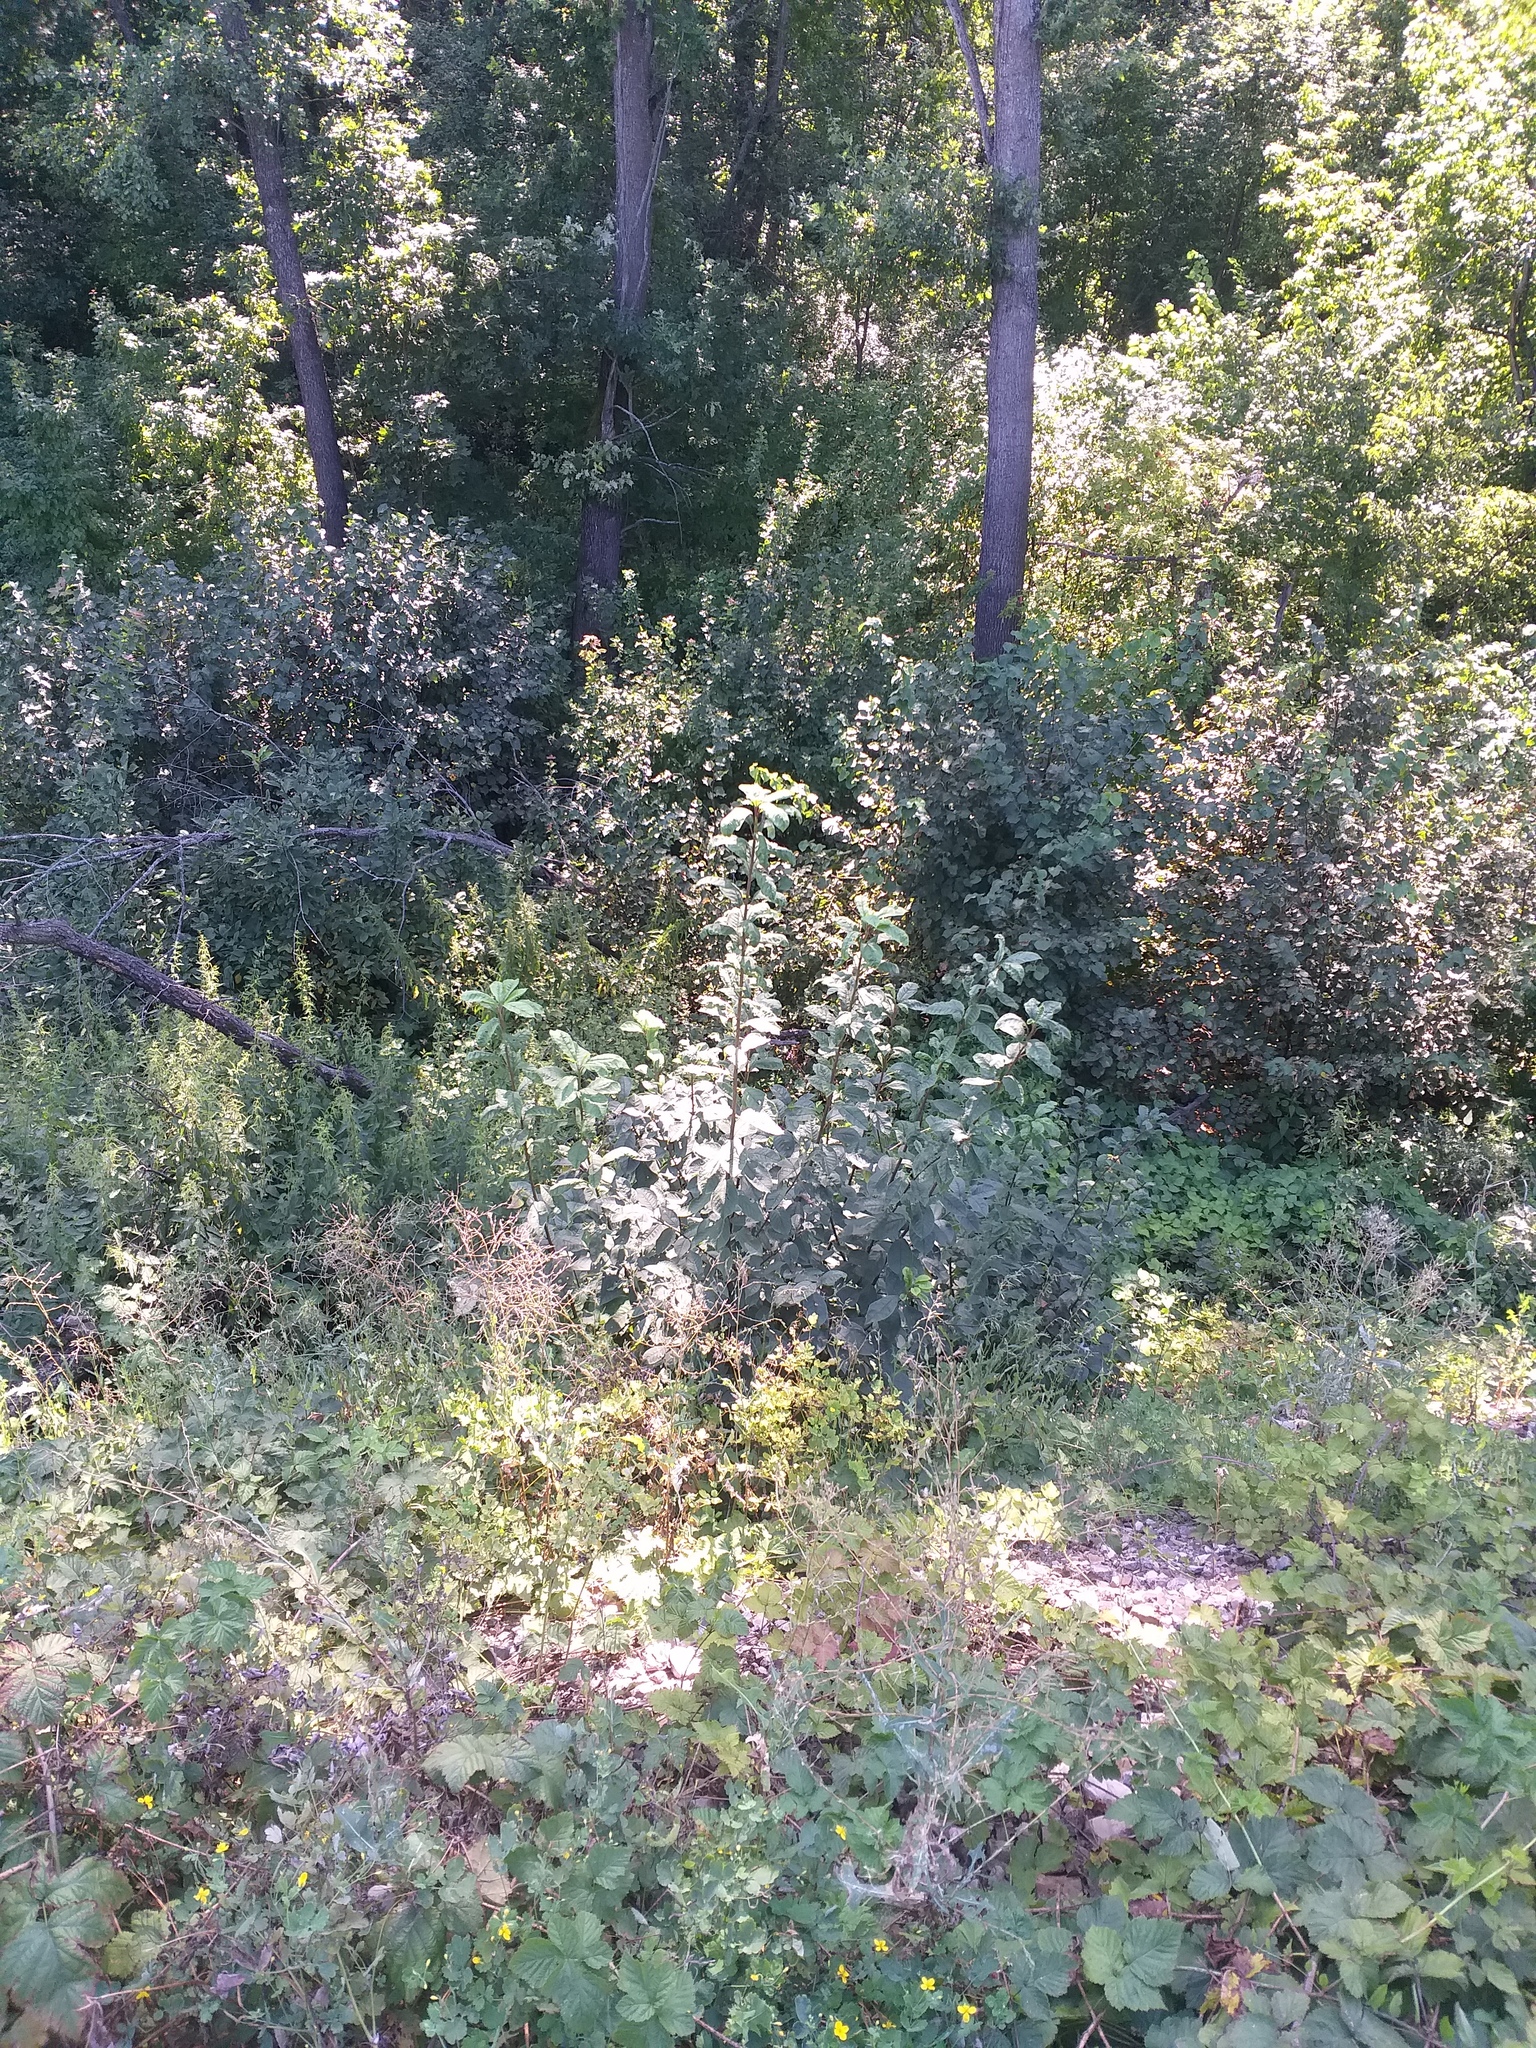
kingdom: Plantae
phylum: Tracheophyta
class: Magnoliopsida
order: Rosales
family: Rosaceae
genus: Prunus
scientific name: Prunus padus
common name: Bird cherry
